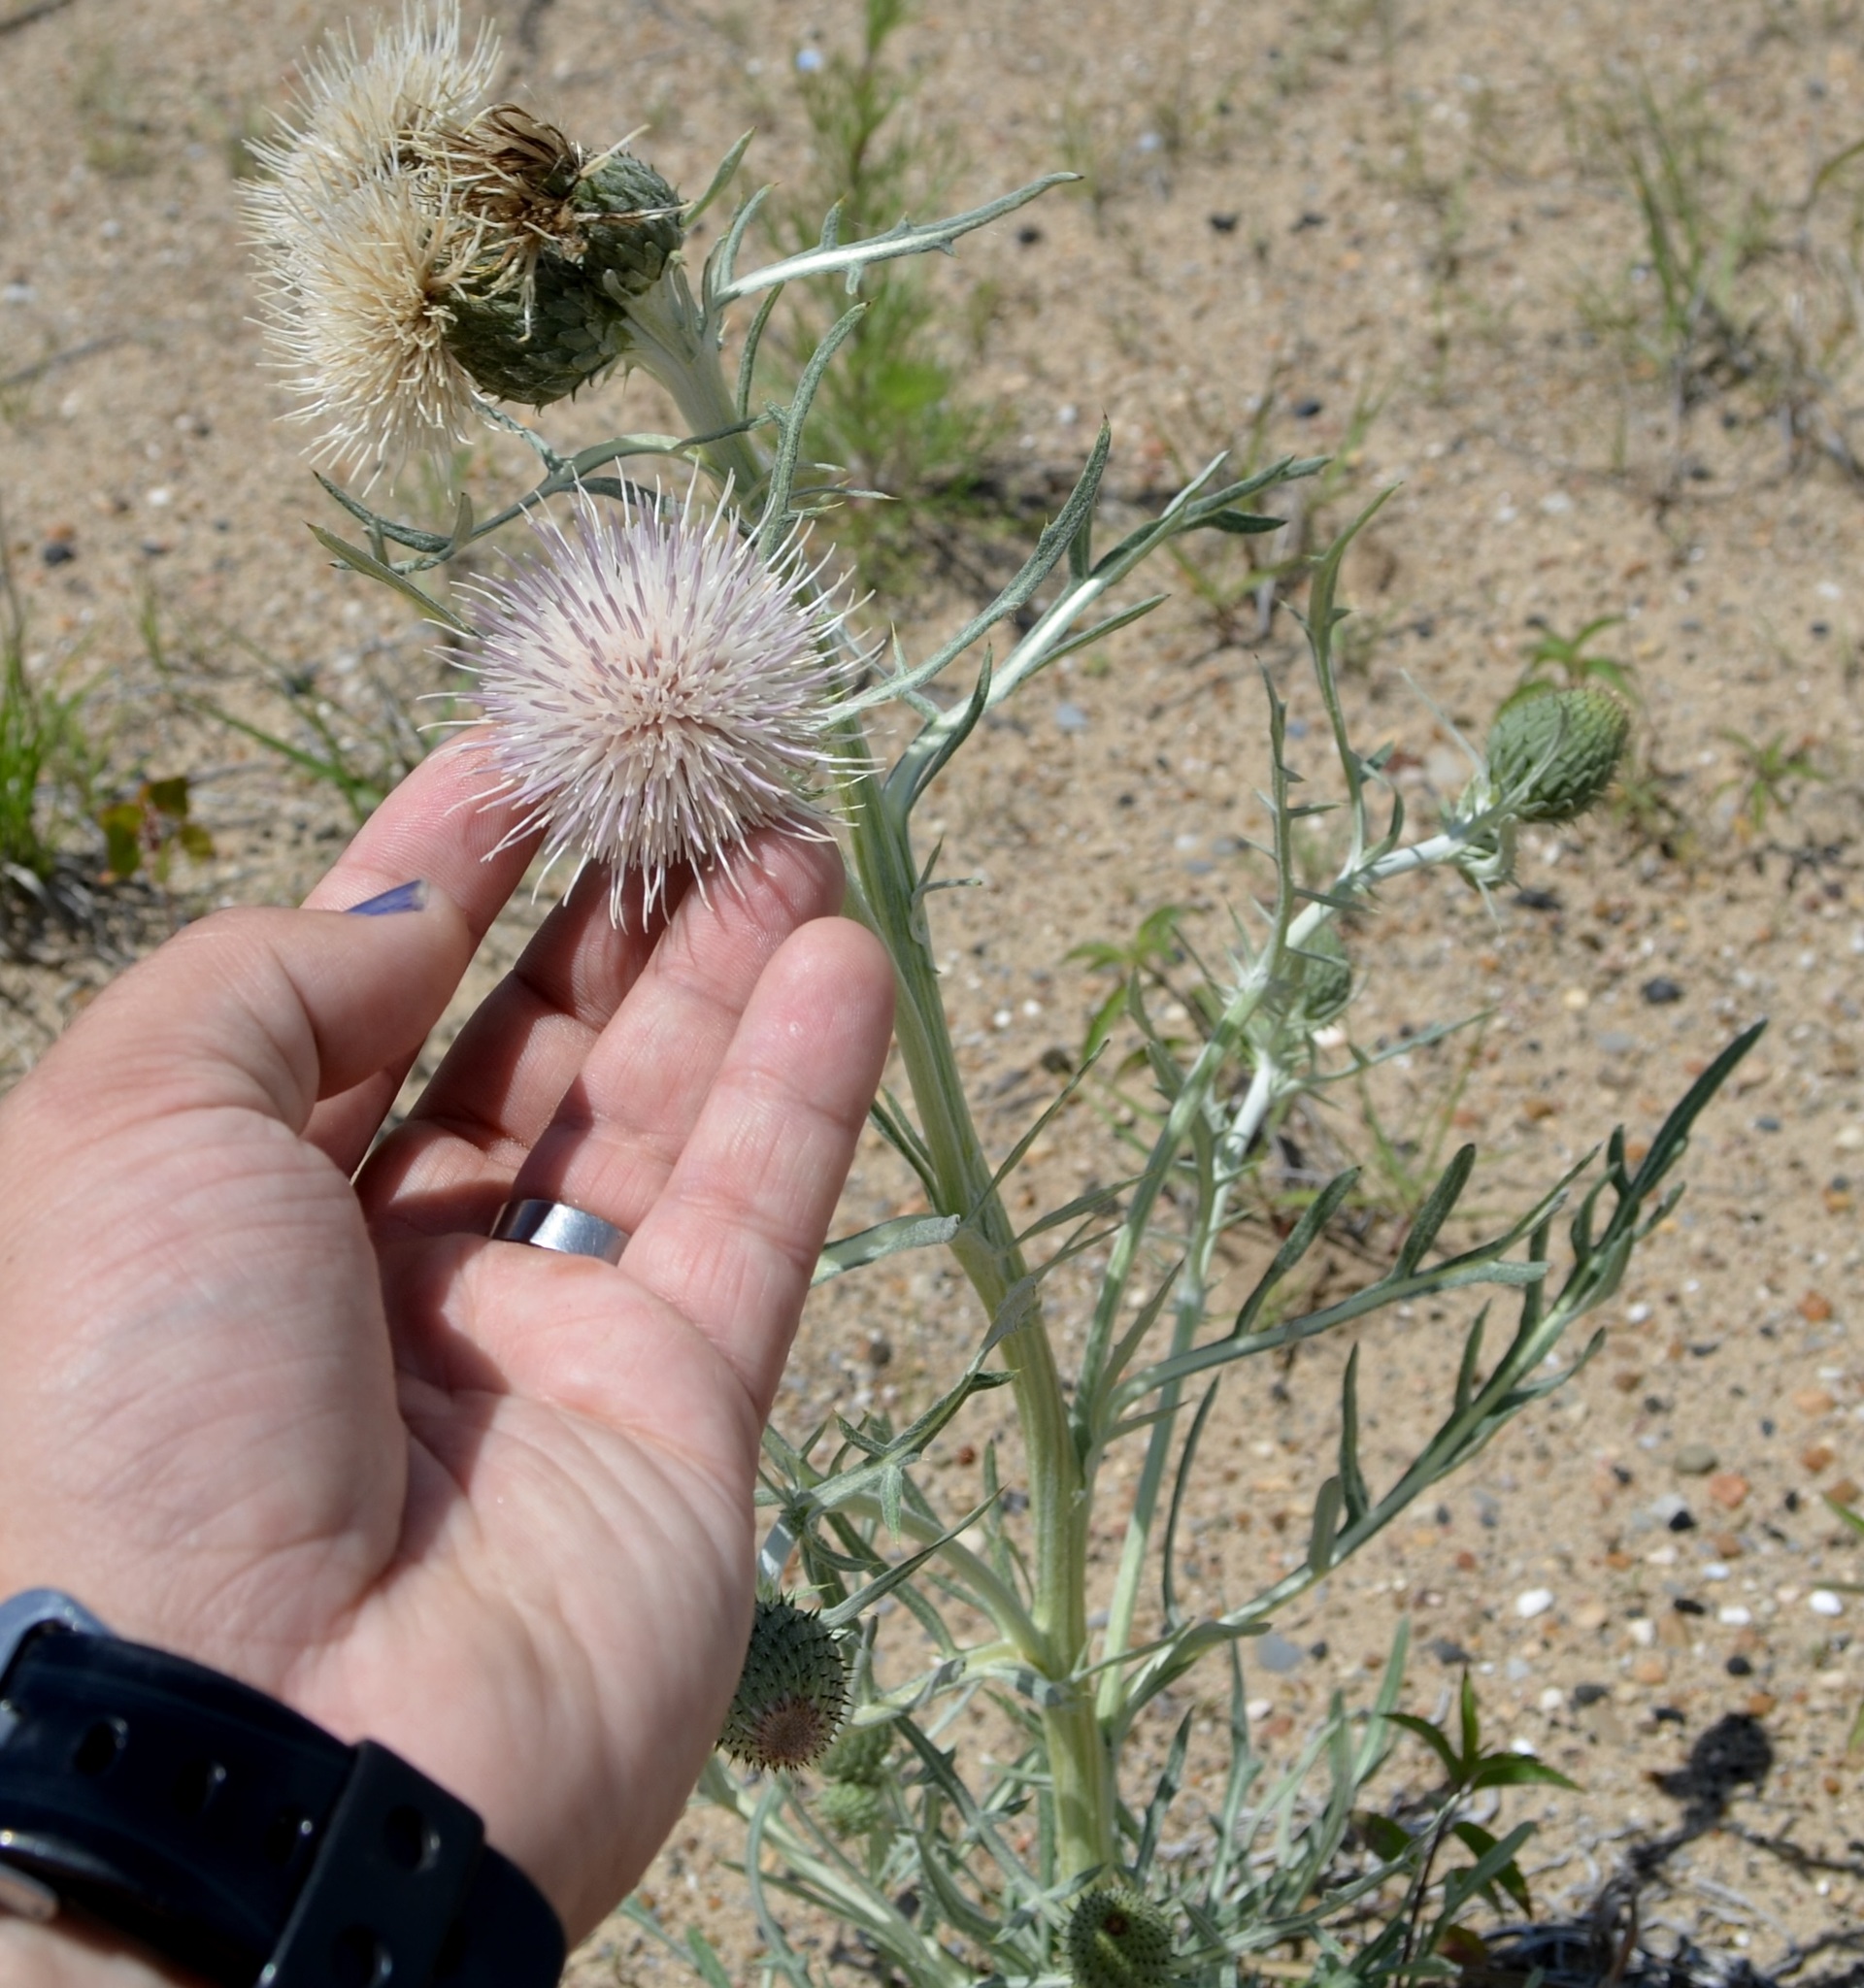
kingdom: Plantae
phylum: Tracheophyta
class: Magnoliopsida
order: Asterales
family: Asteraceae
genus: Cirsium
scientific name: Cirsium pitcheri
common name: Dune thistle
